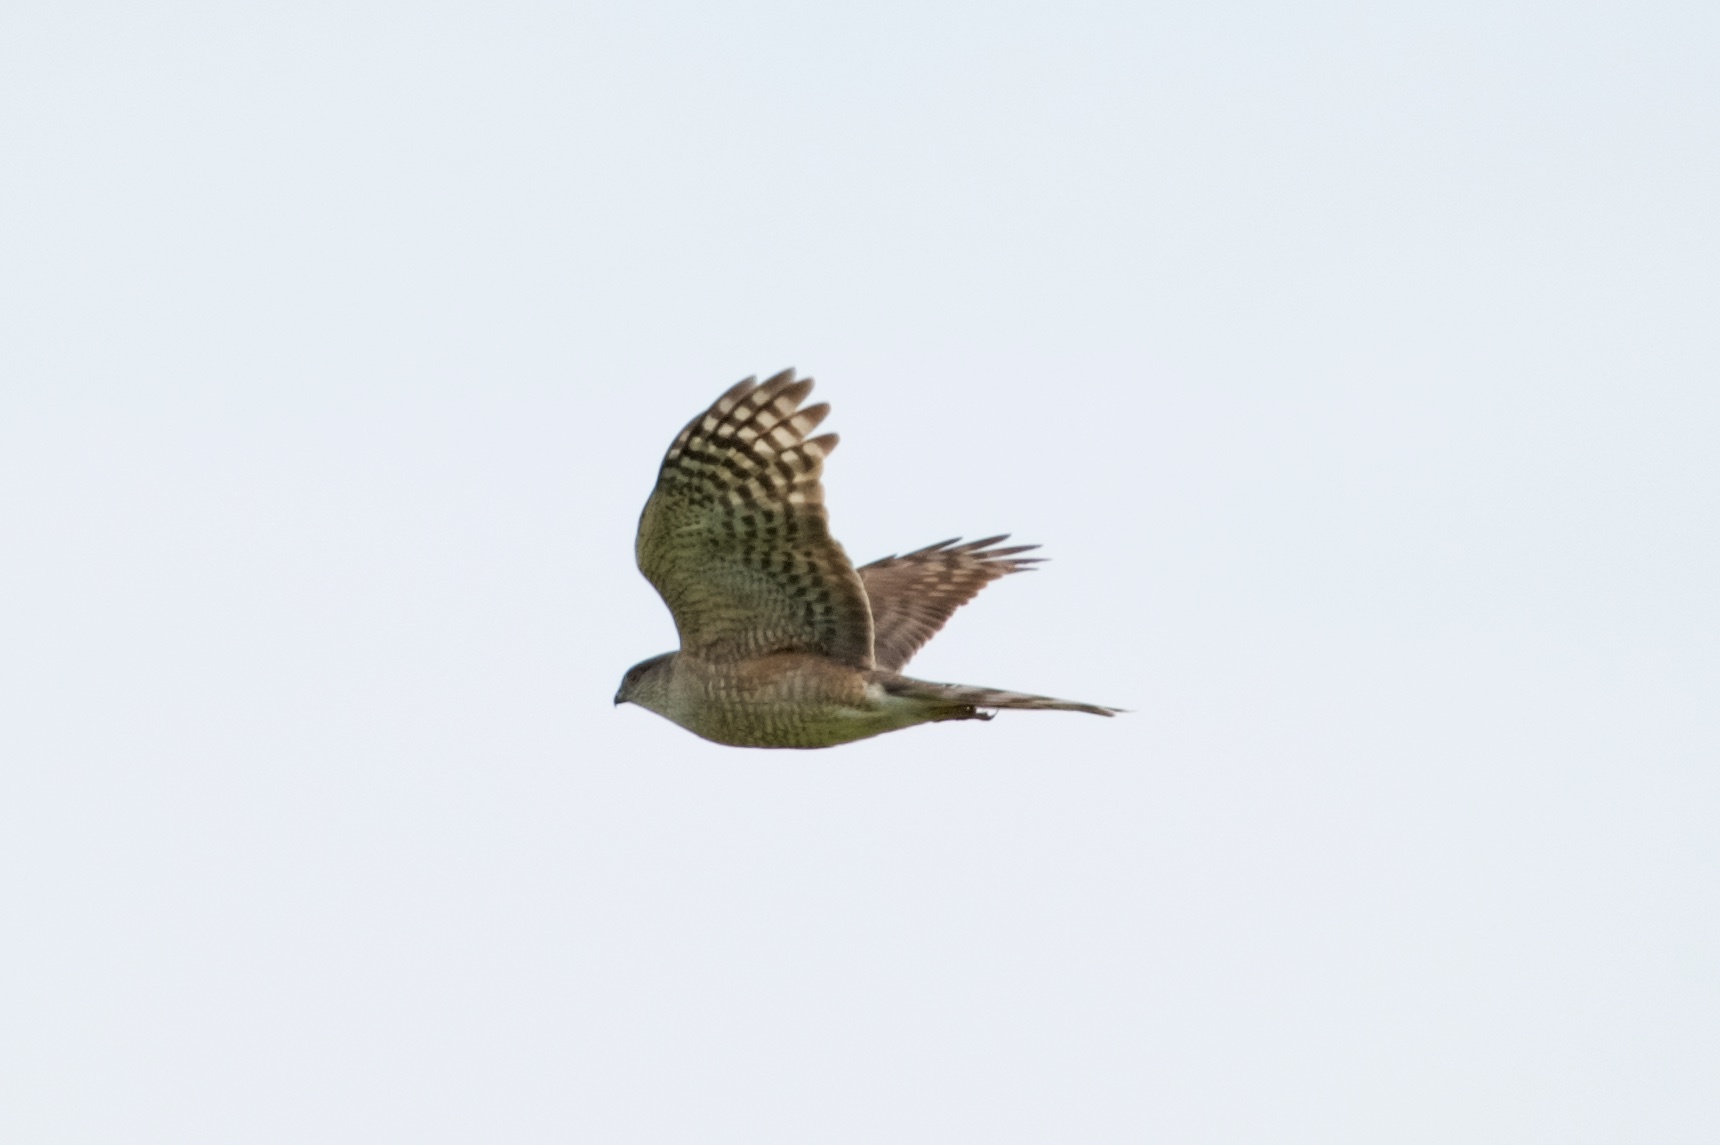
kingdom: Animalia
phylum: Chordata
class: Aves
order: Accipitriformes
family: Accipitridae
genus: Accipiter
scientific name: Accipiter striatus
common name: Sharp-shinned hawk
